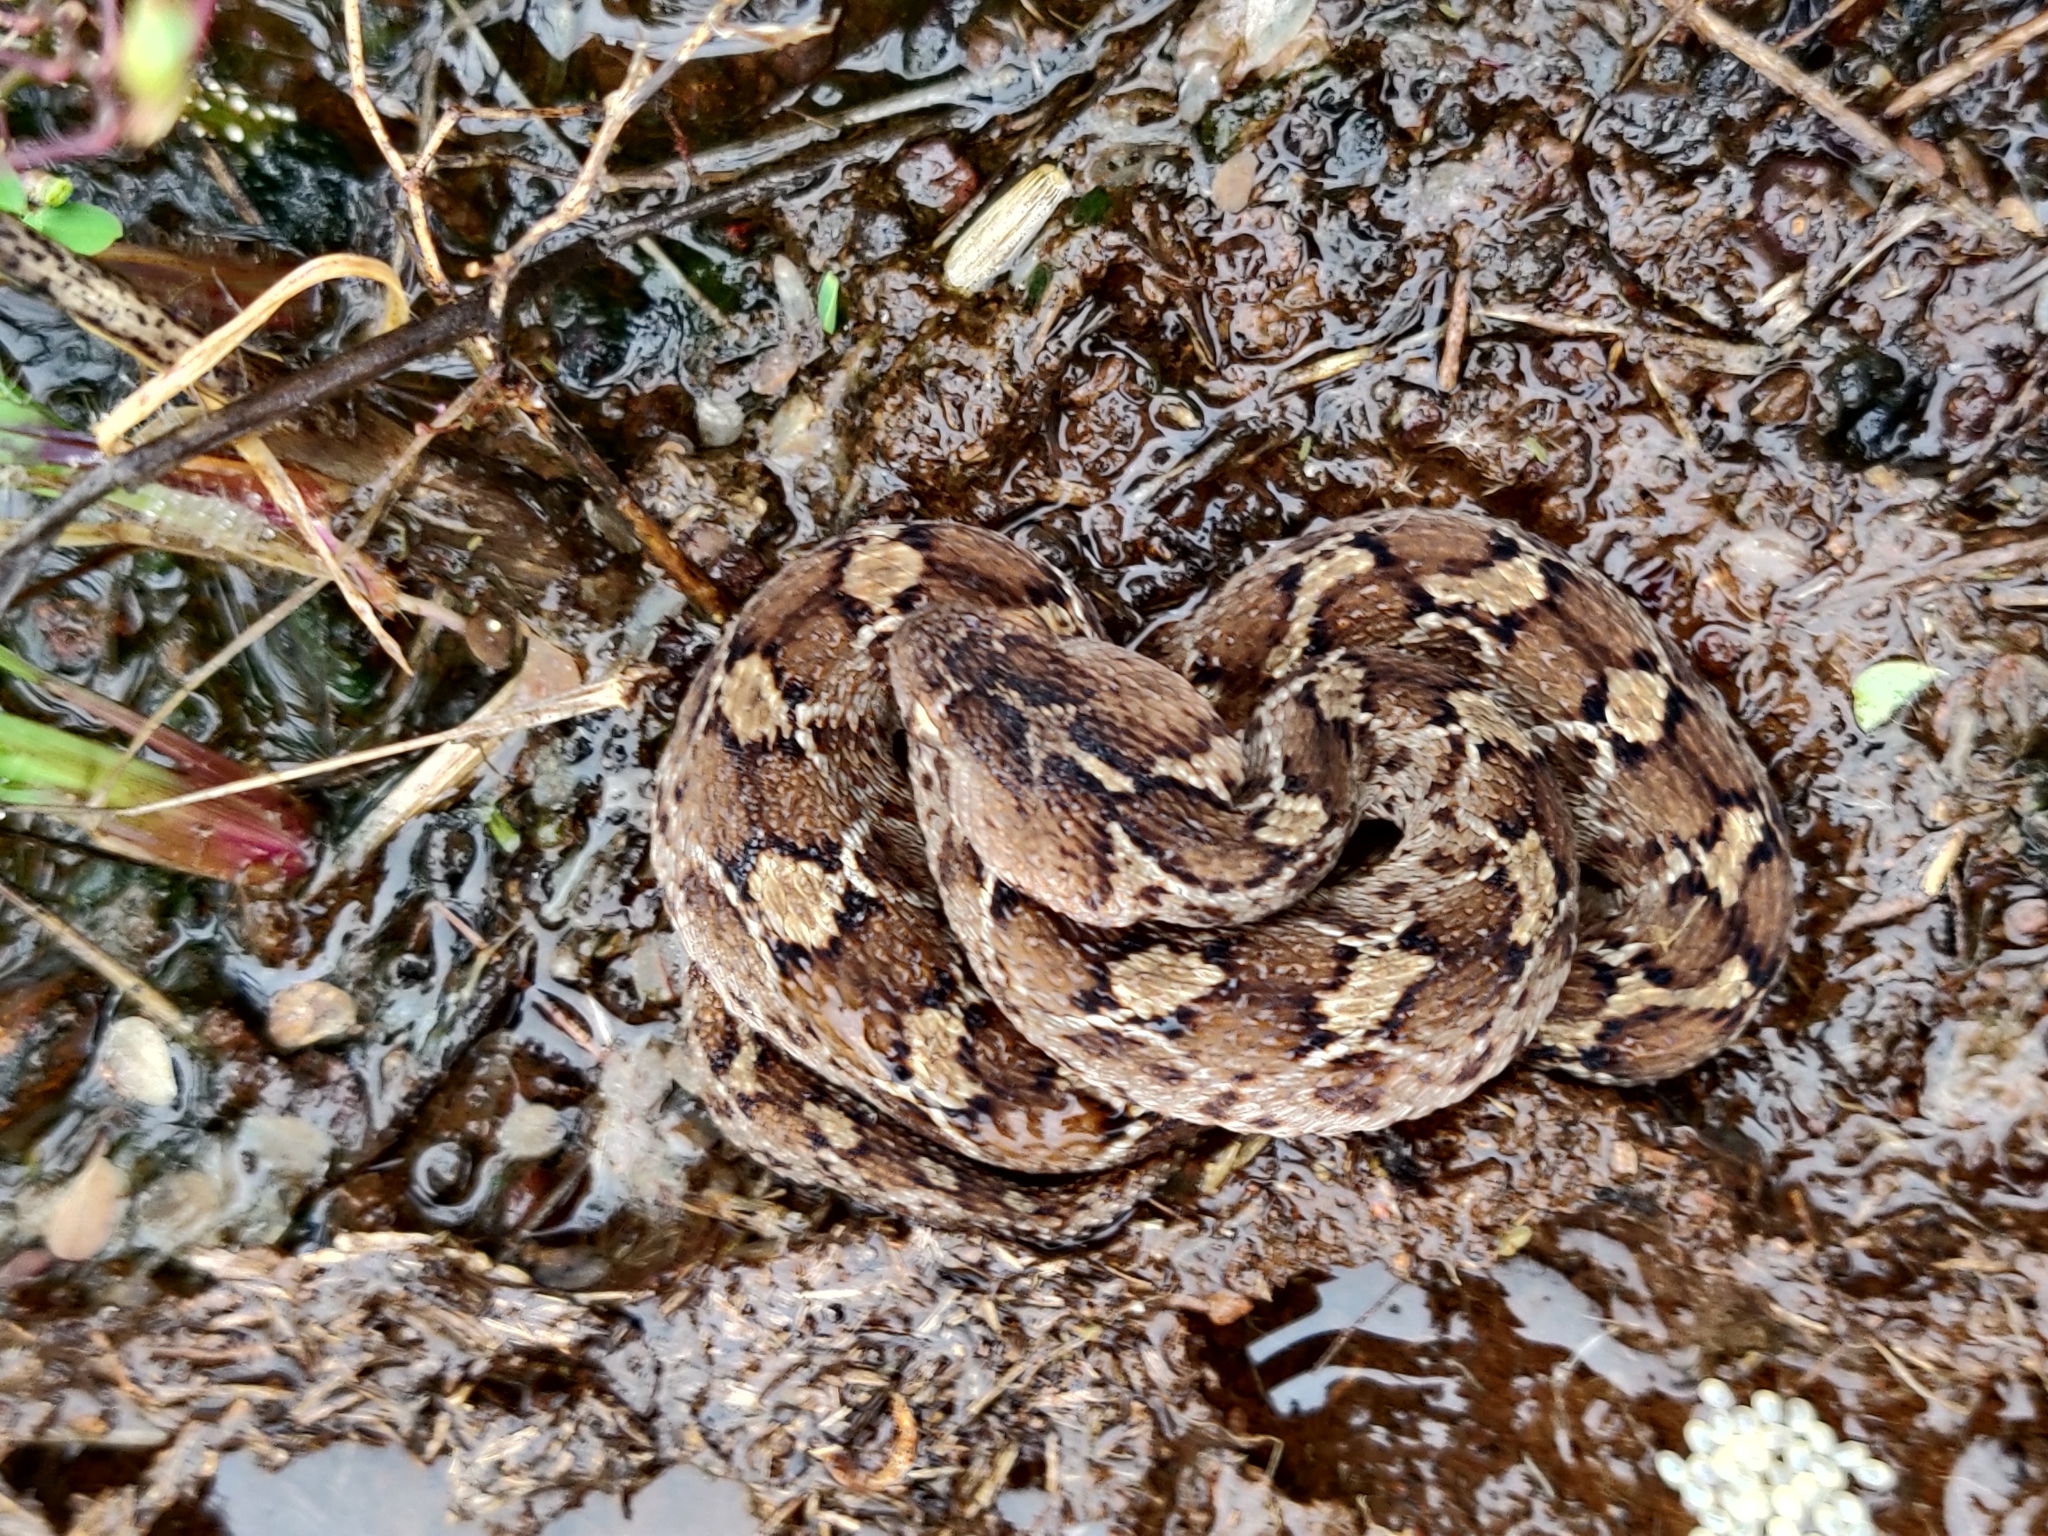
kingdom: Animalia
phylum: Chordata
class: Squamata
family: Viperidae
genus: Echis
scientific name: Echis carinatus
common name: Saw-scaled viper
